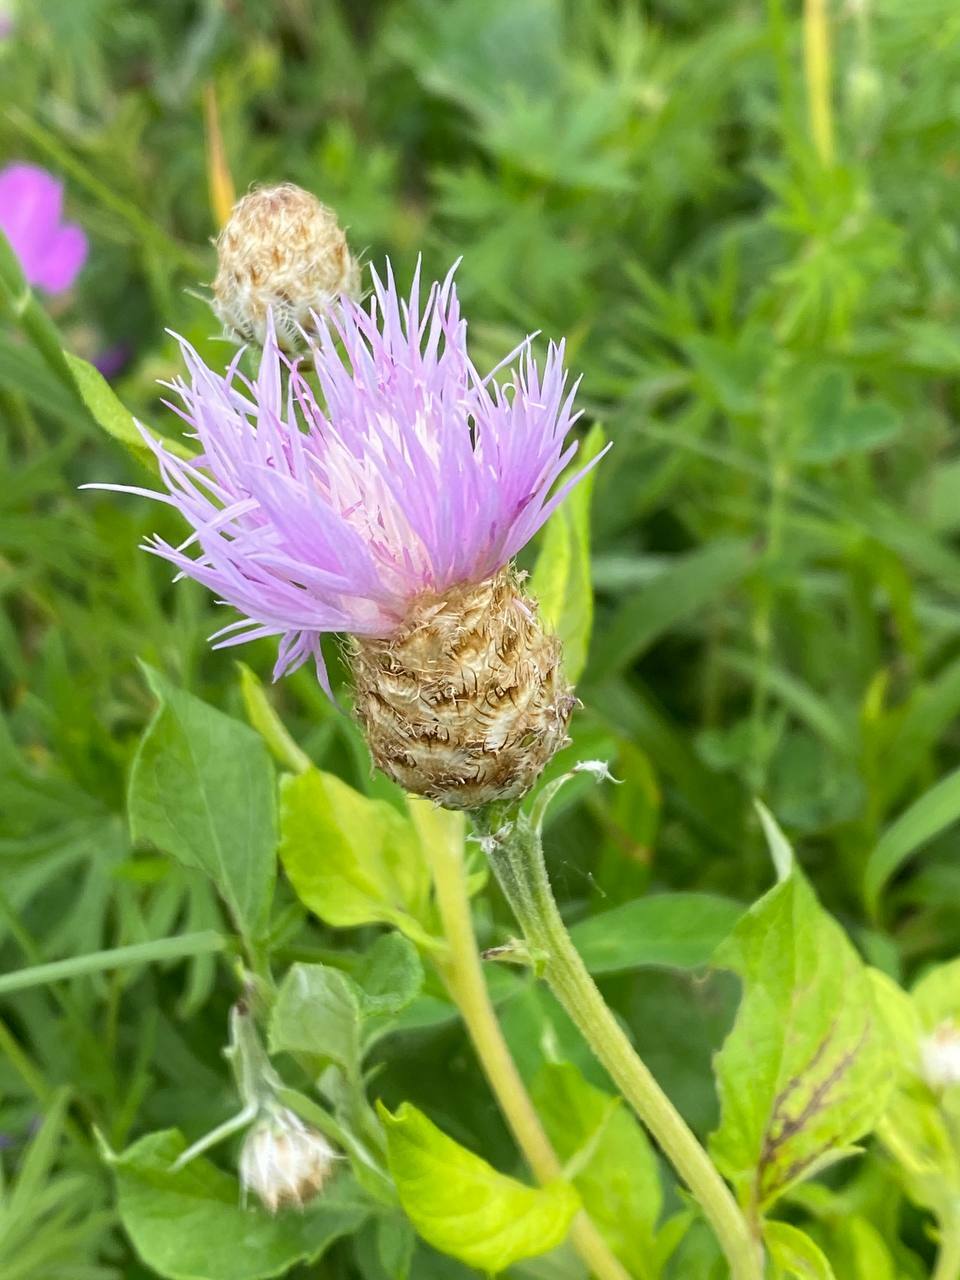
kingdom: Plantae
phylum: Tracheophyta
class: Magnoliopsida
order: Asterales
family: Asteraceae
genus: Psephellus
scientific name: Psephellus dealbatus
